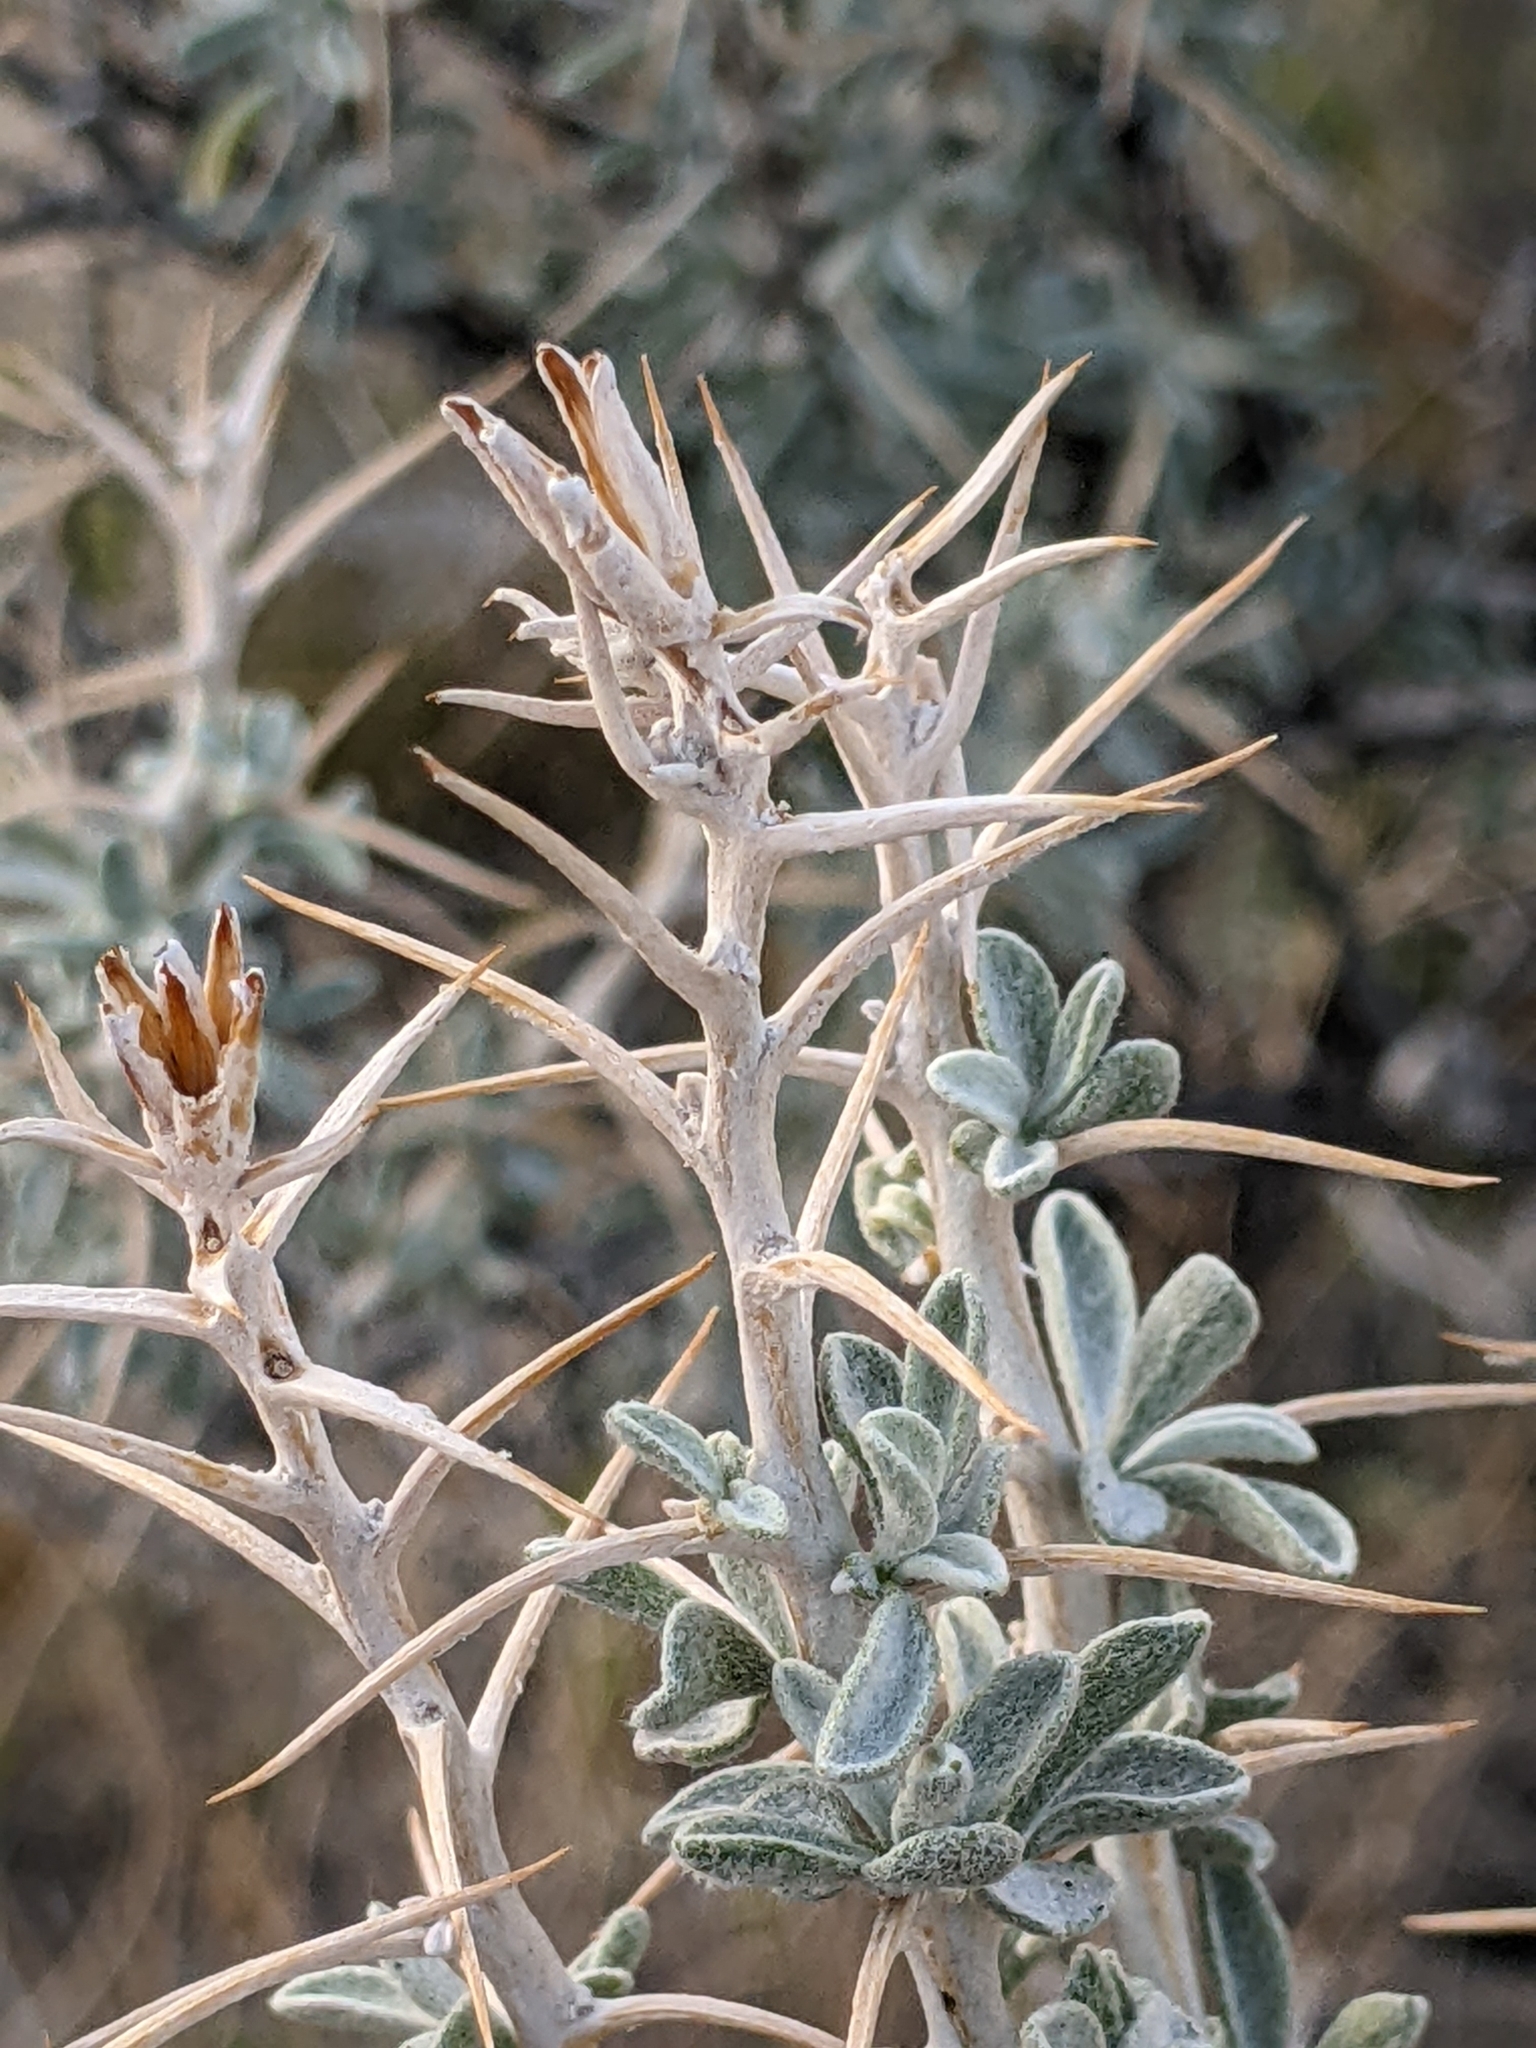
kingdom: Plantae
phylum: Tracheophyta
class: Magnoliopsida
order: Asterales
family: Asteraceae
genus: Tetradymia
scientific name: Tetradymia stenolepis
